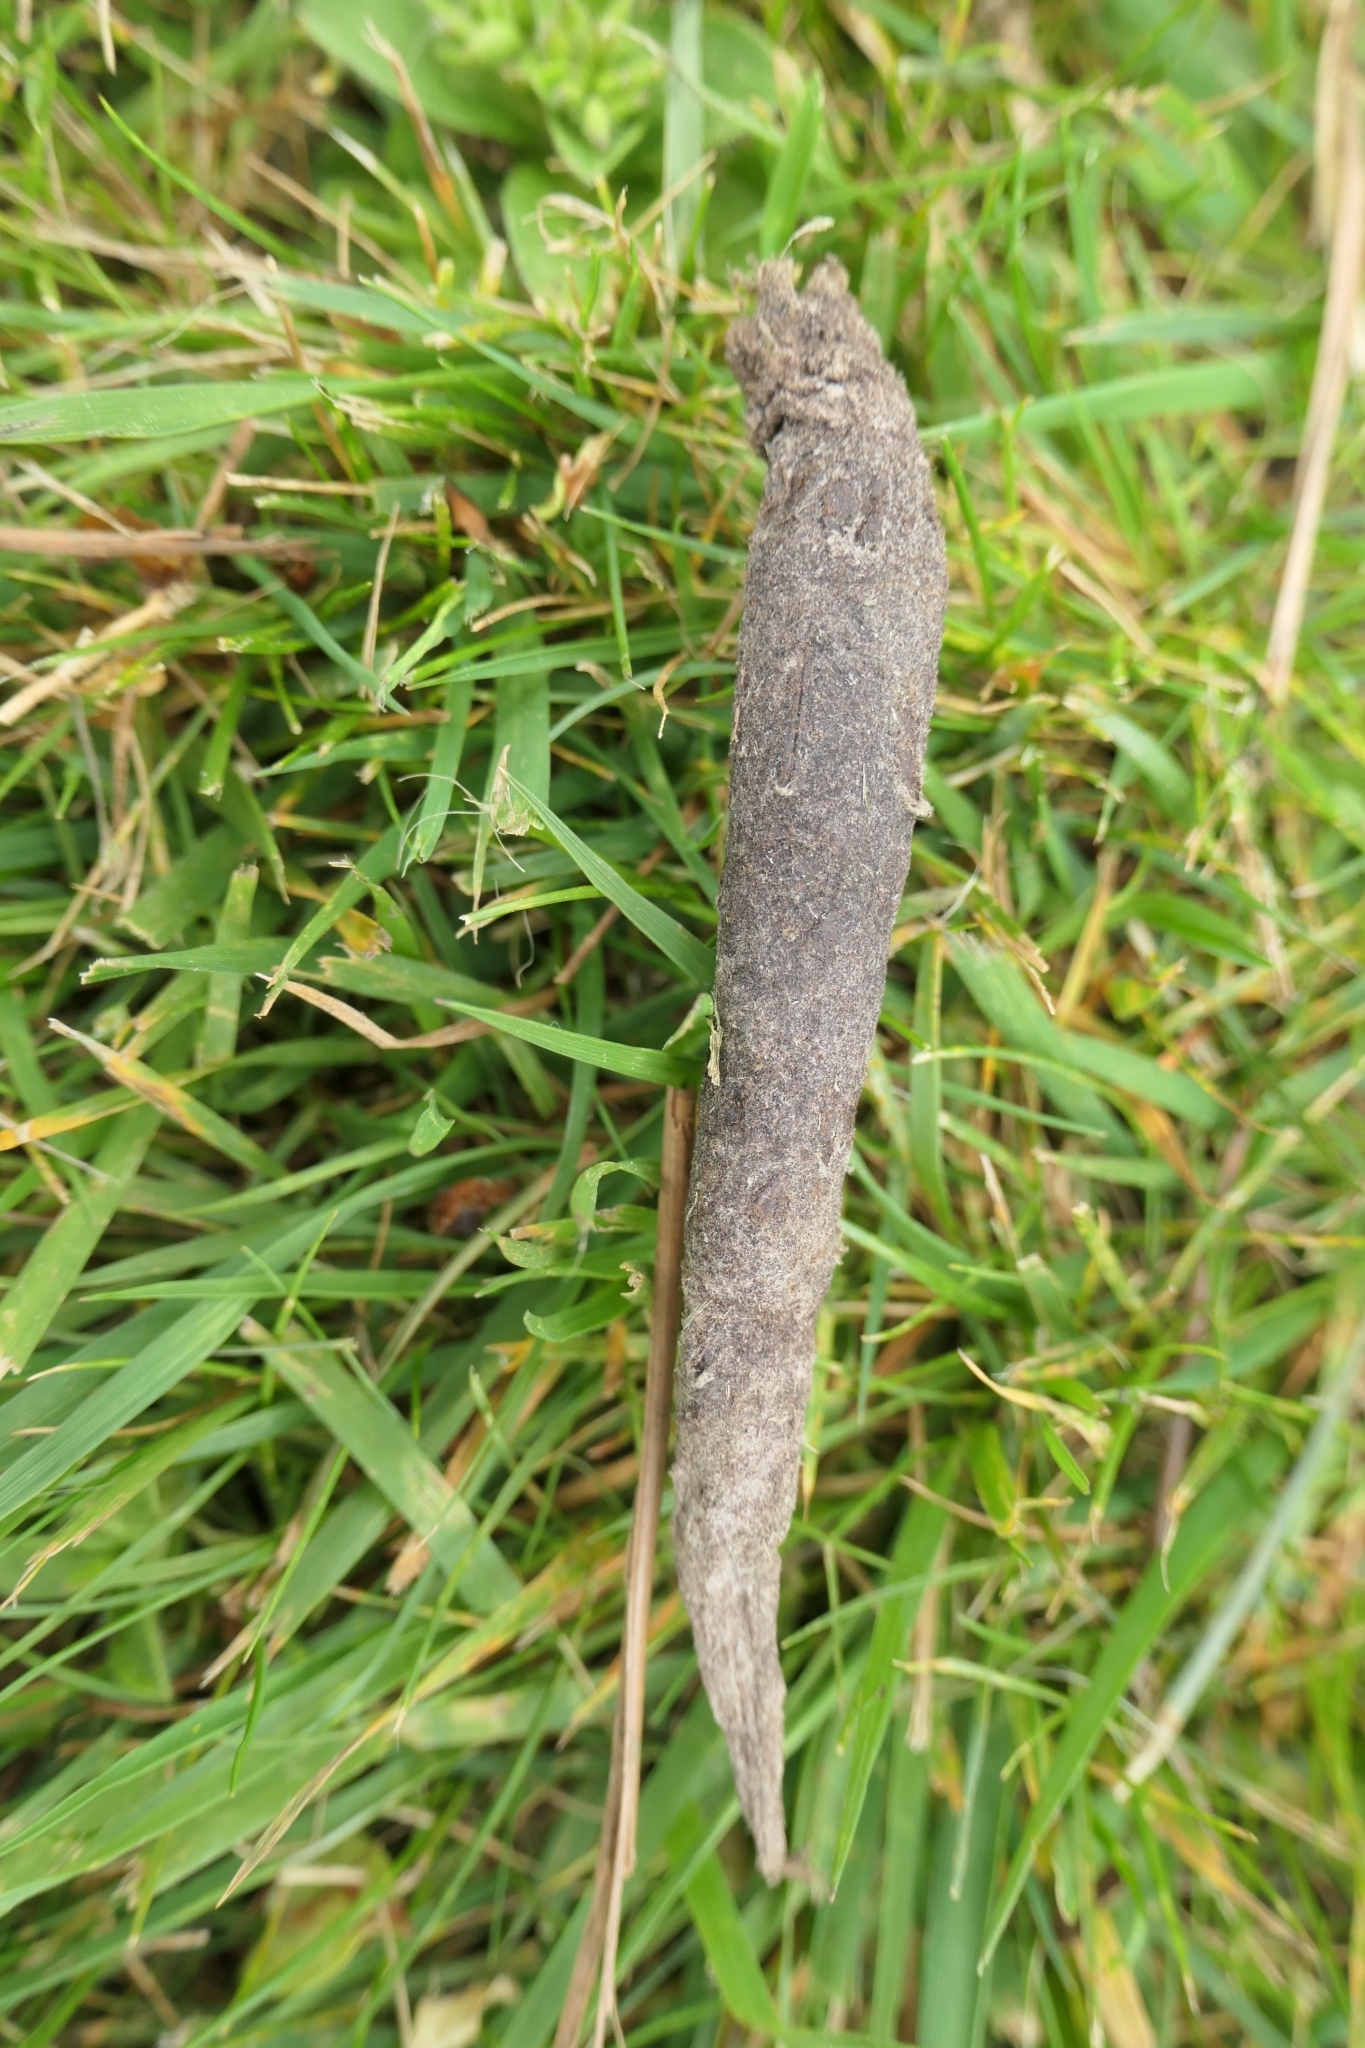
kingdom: Animalia
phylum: Arthropoda
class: Insecta
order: Lepidoptera
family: Psychidae
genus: Liothula
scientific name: Liothula omnivora
